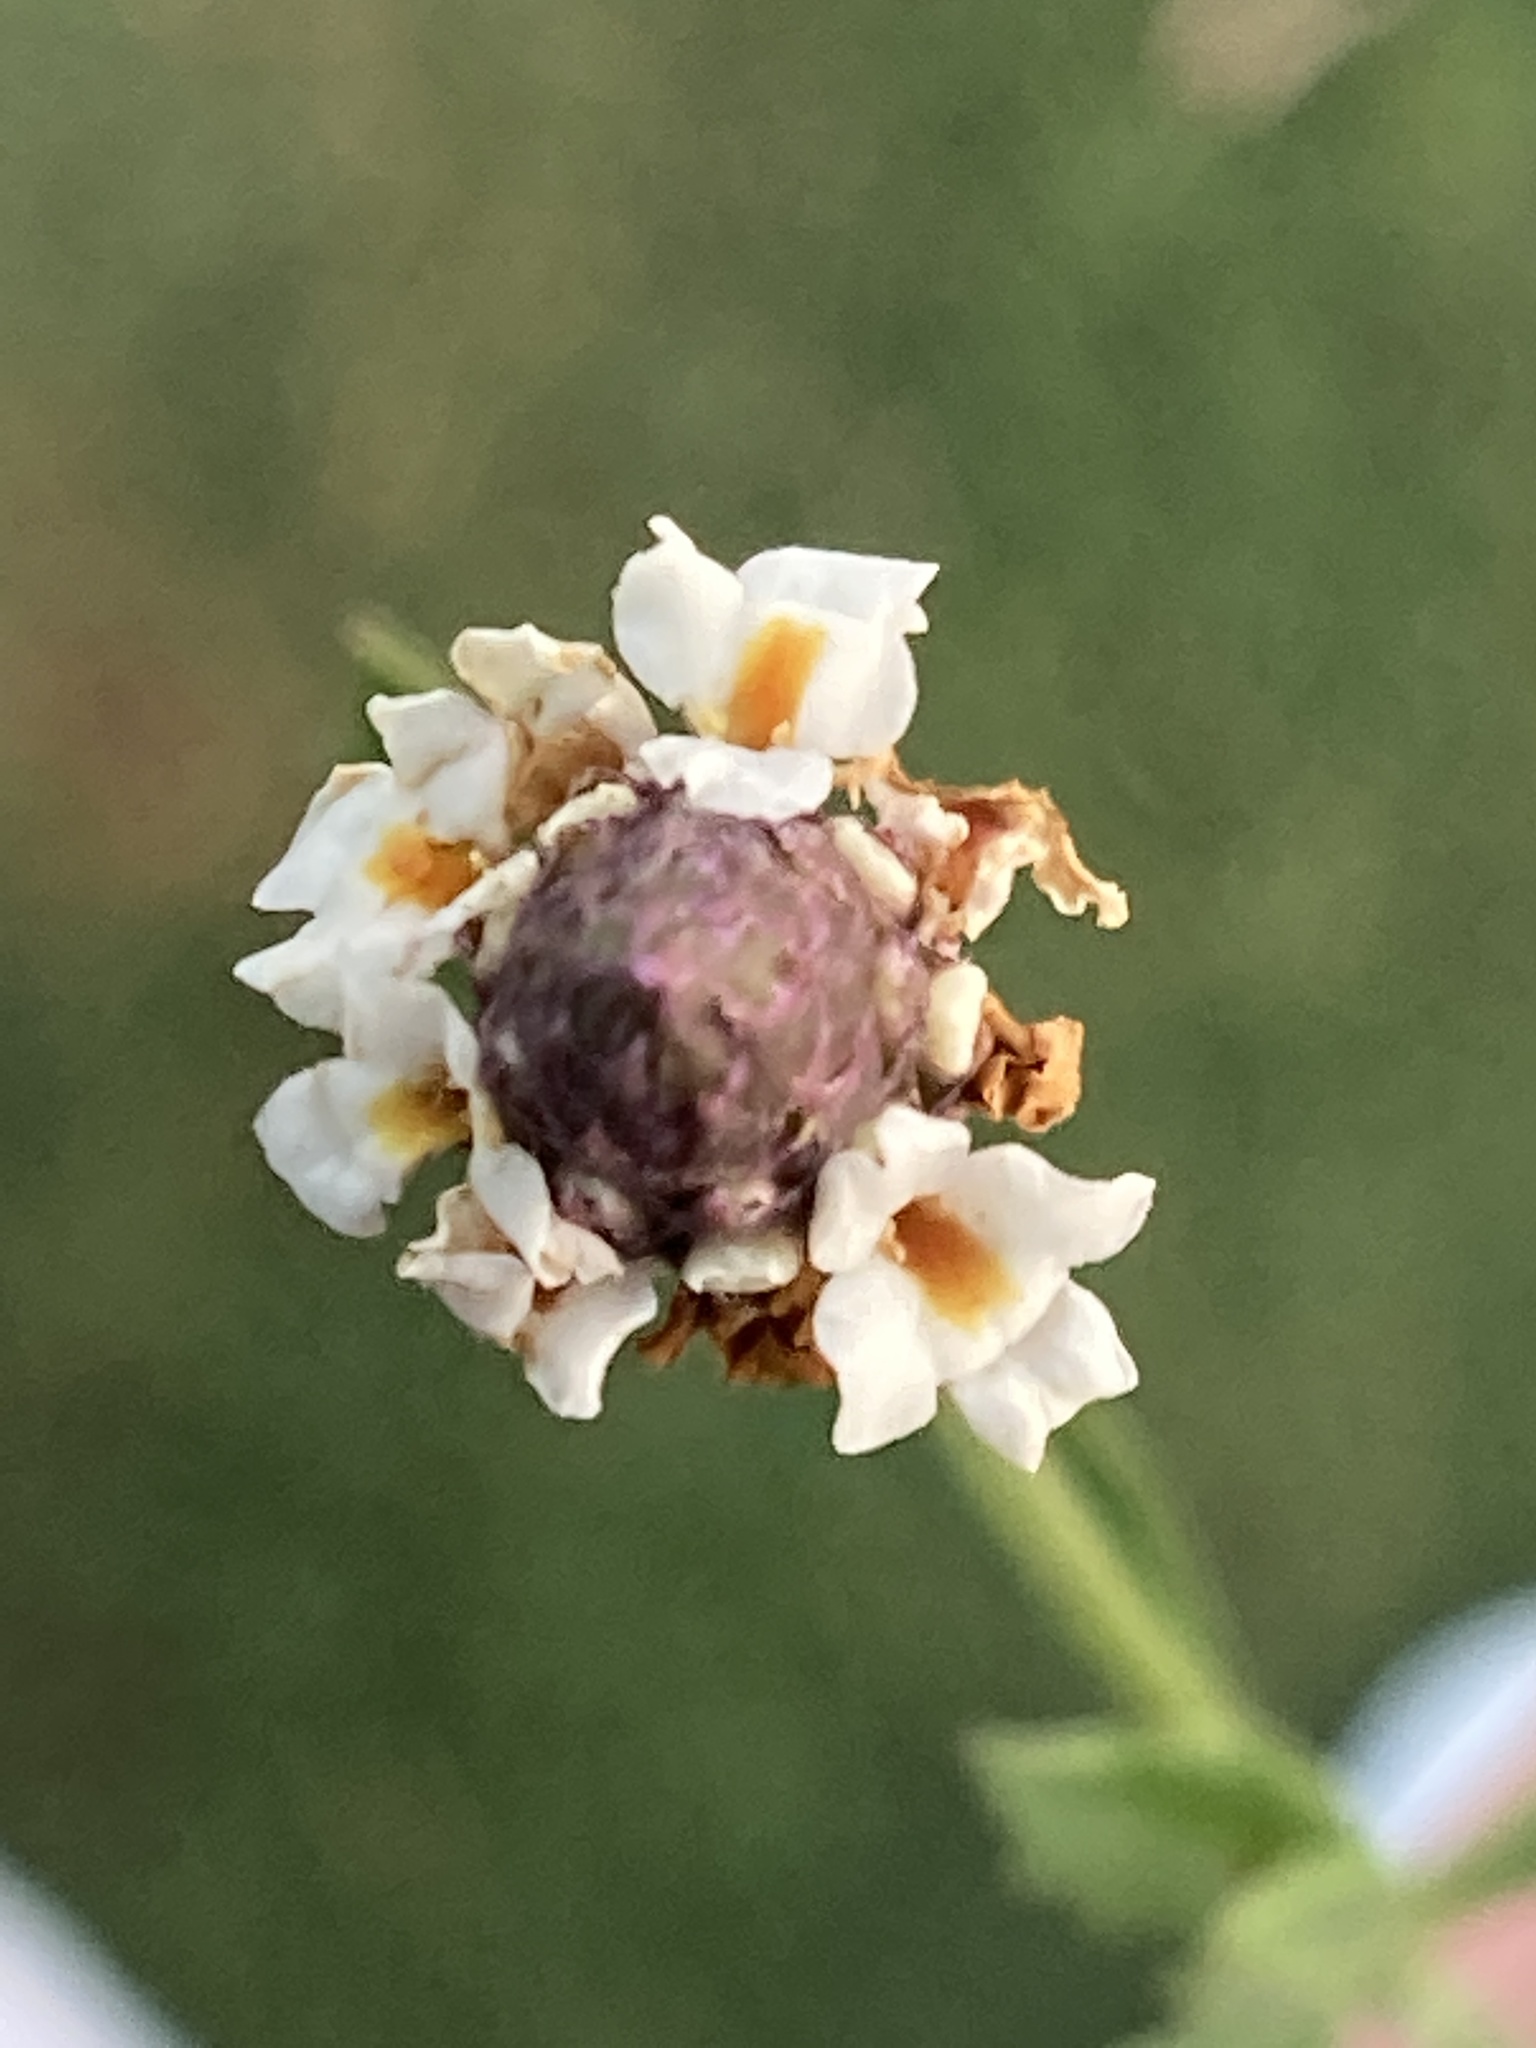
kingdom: Plantae
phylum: Tracheophyta
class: Magnoliopsida
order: Lamiales
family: Verbenaceae
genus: Phyla
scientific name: Phyla nodiflora
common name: Frogfruit
